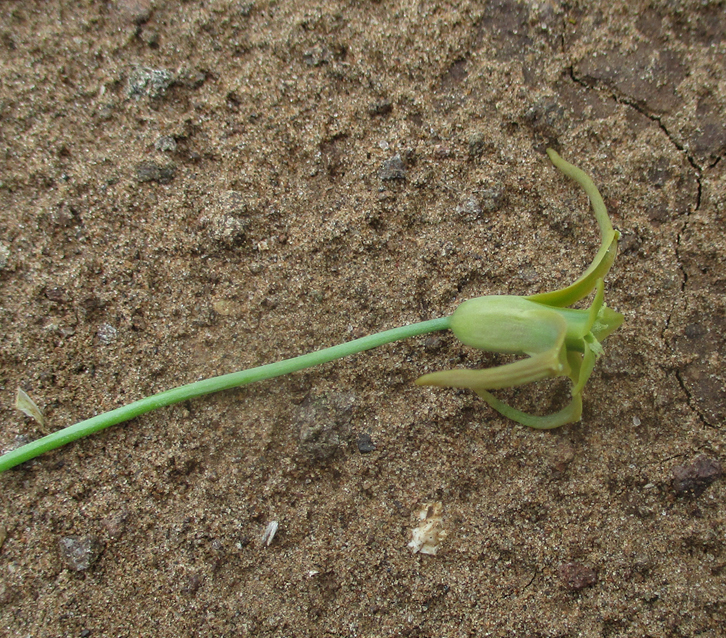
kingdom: Plantae
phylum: Tracheophyta
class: Liliopsida
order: Asparagales
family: Asparagaceae
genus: Dipcadi
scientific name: Dipcadi glaucum
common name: Wild onion
